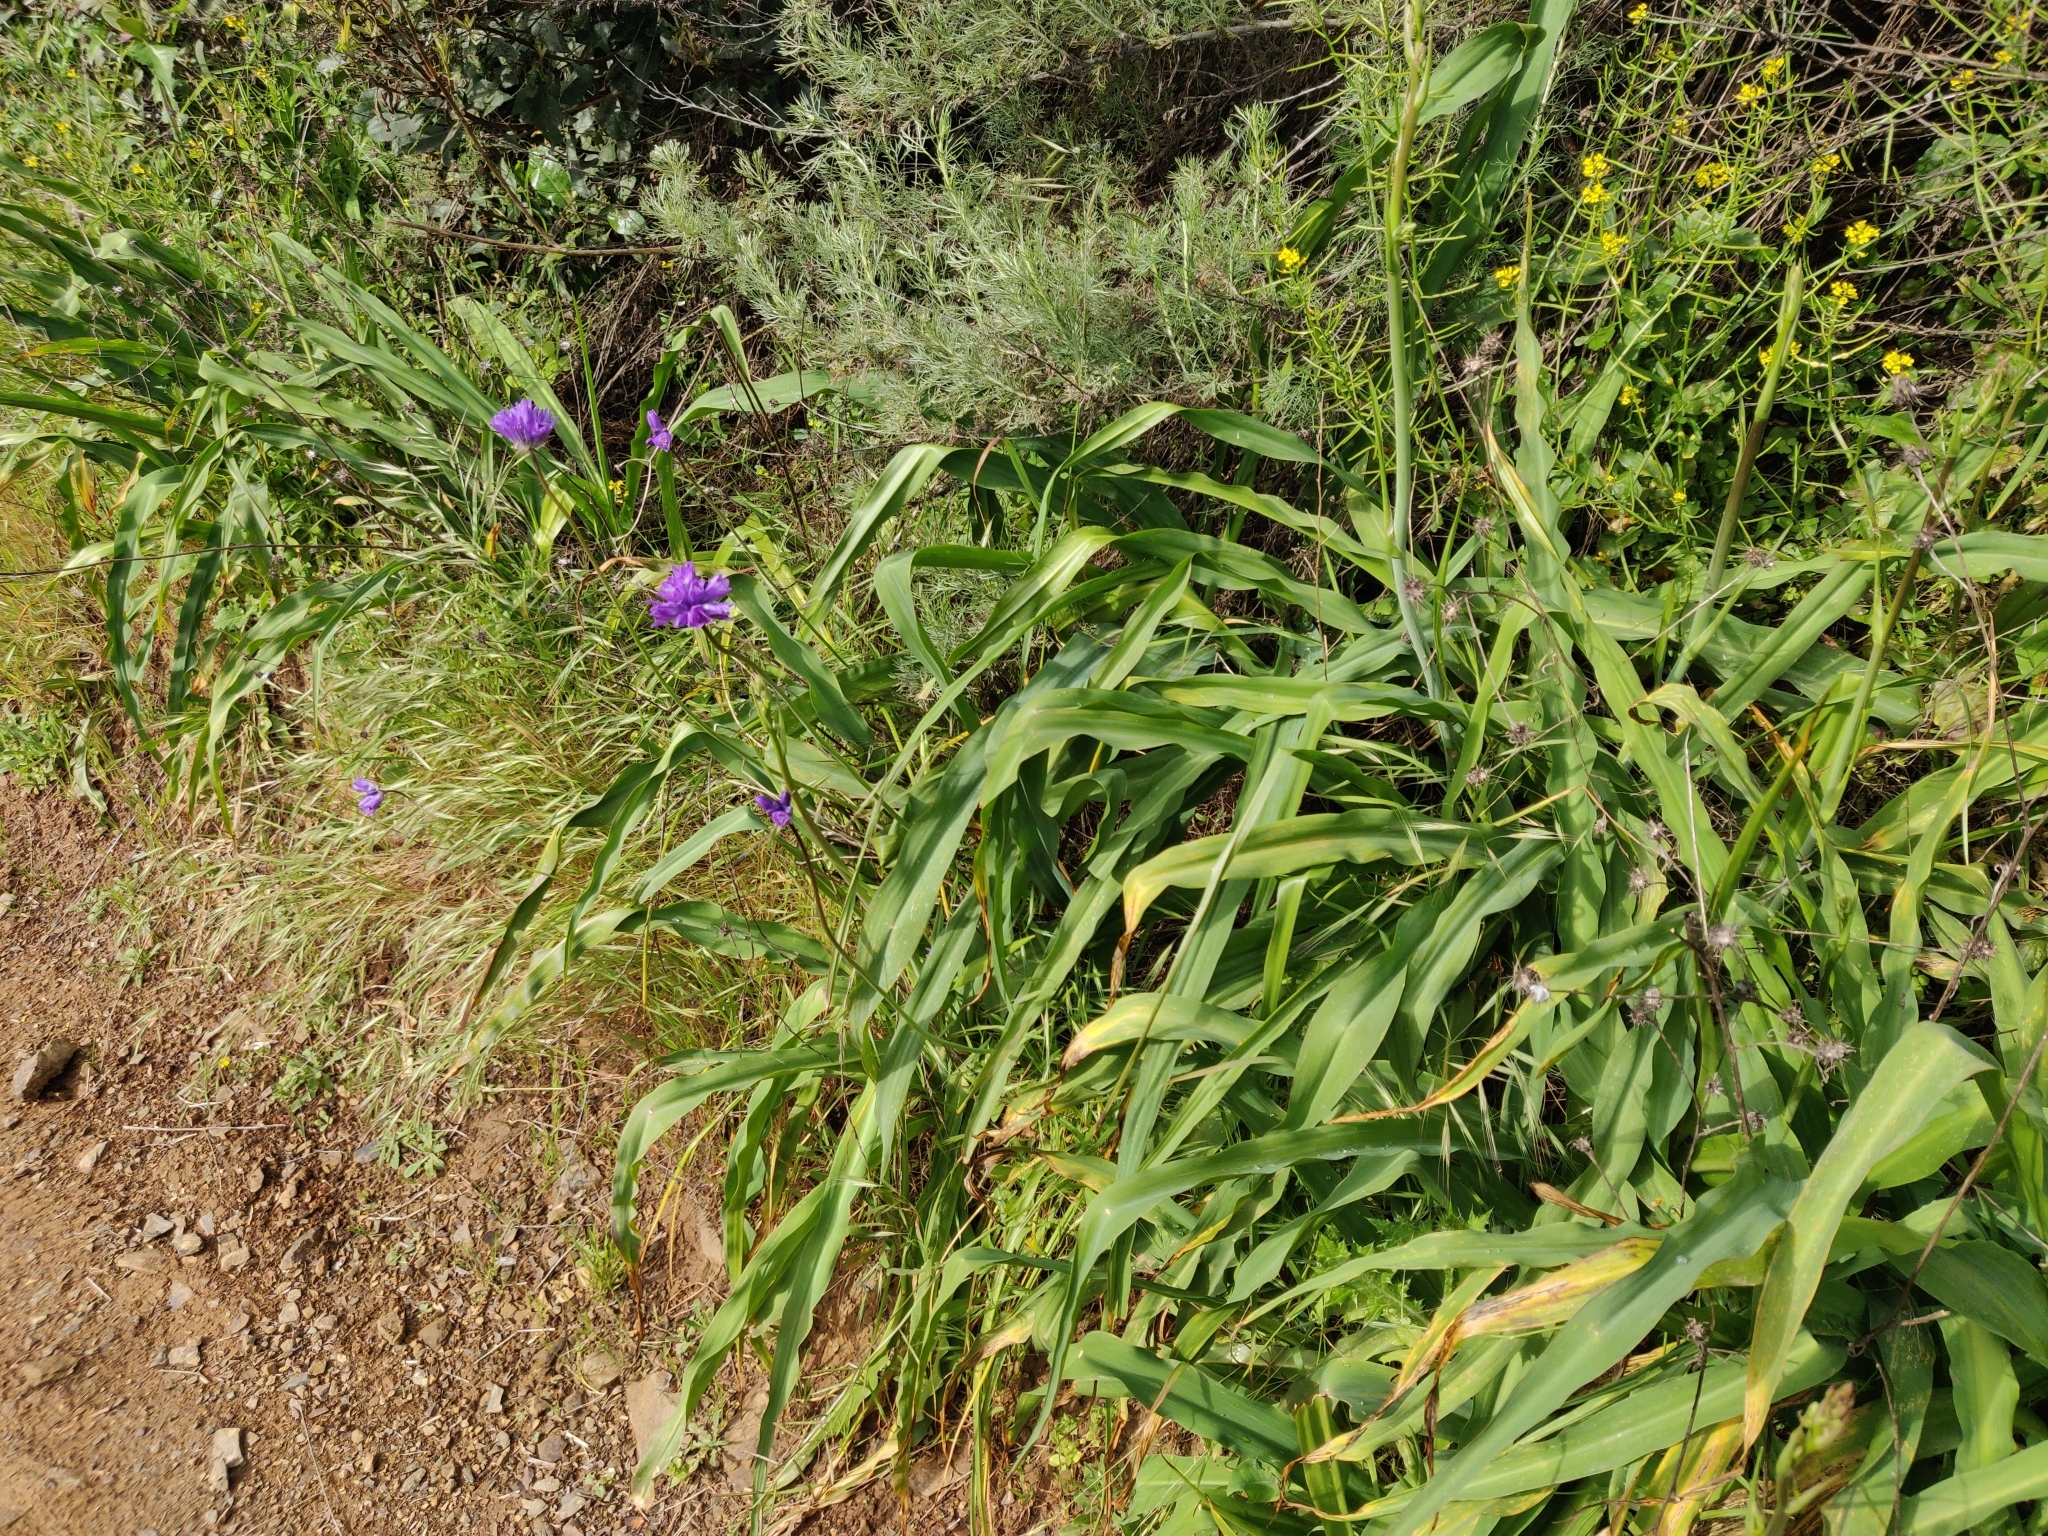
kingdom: Plantae
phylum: Tracheophyta
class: Liliopsida
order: Asparagales
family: Asparagaceae
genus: Dipterostemon
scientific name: Dipterostemon capitatus
